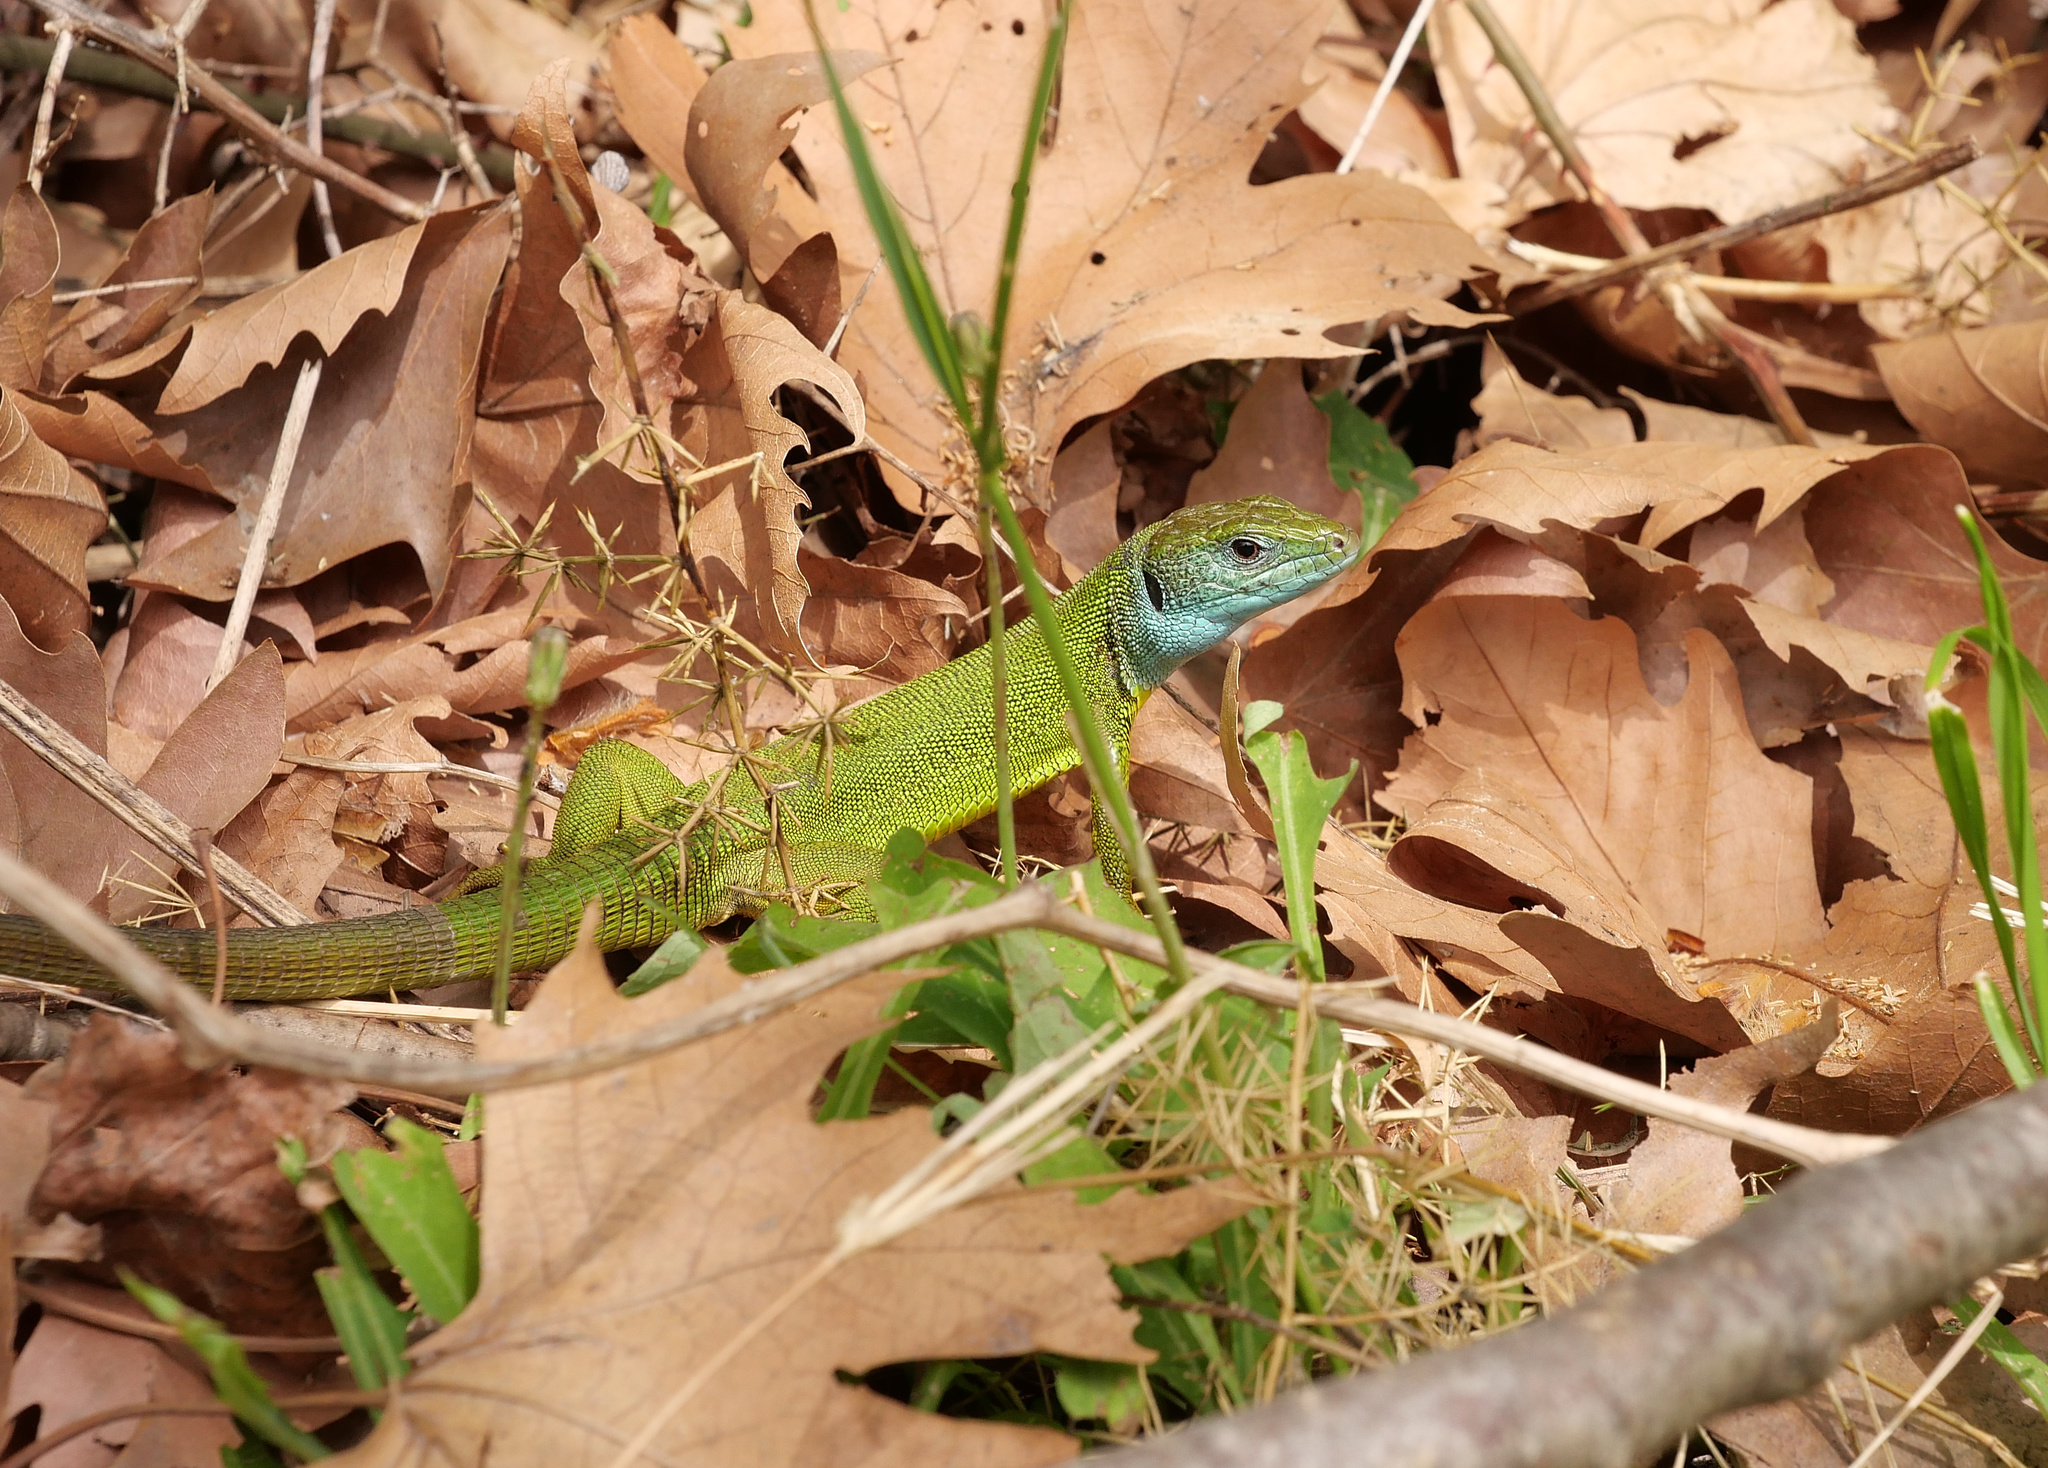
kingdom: Animalia
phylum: Chordata
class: Squamata
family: Lacertidae
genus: Lacerta
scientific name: Lacerta viridis
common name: European green lizard
